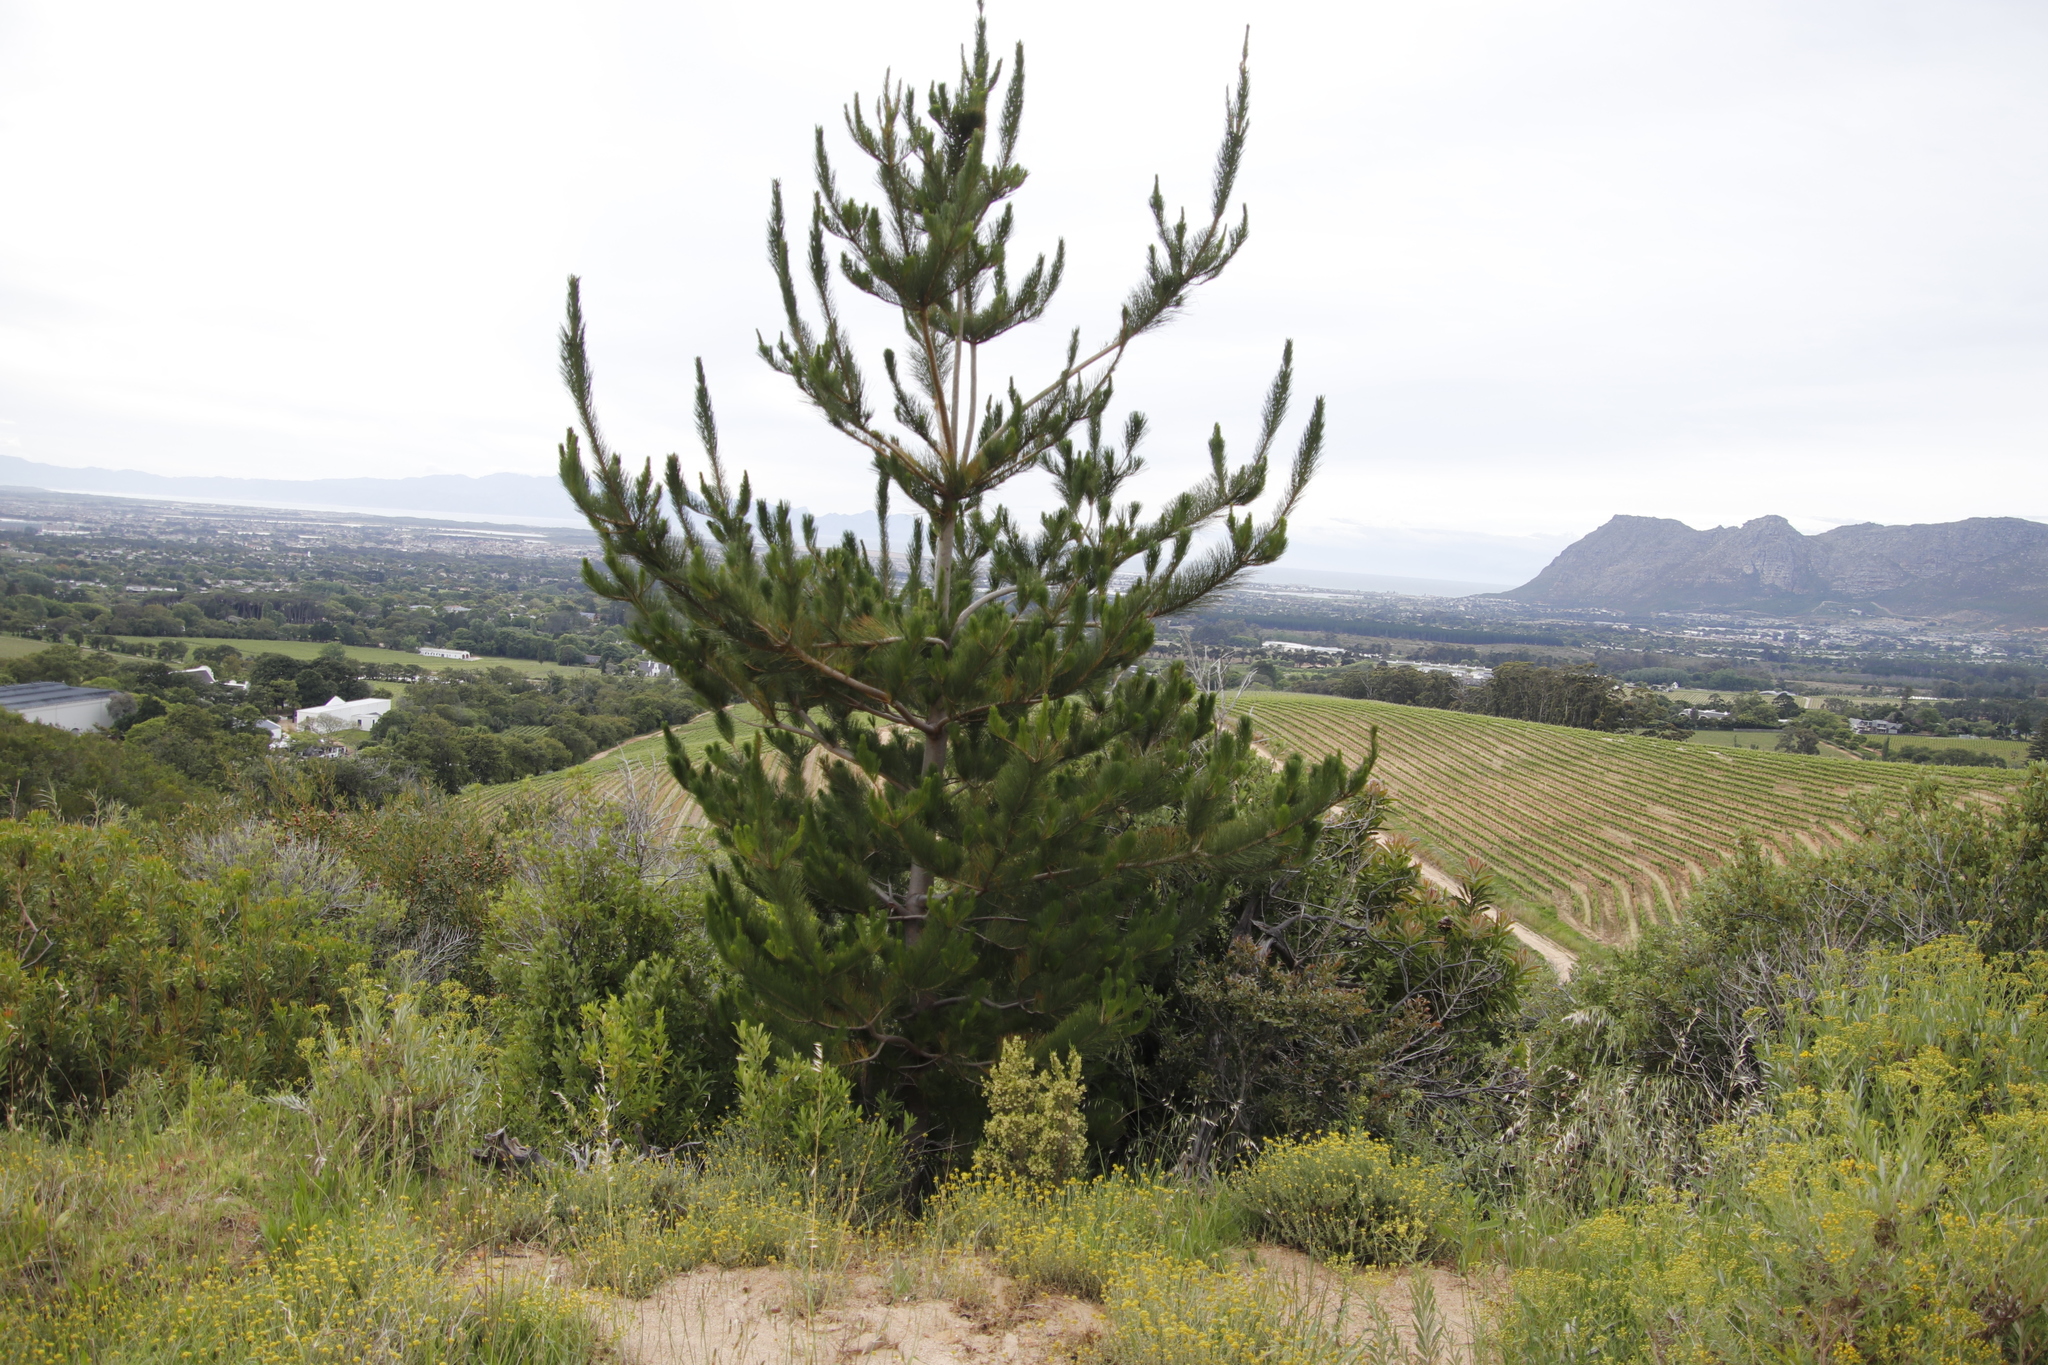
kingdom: Plantae
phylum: Tracheophyta
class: Pinopsida
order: Pinales
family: Pinaceae
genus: Pinus
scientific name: Pinus radiata
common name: Monterey pine
